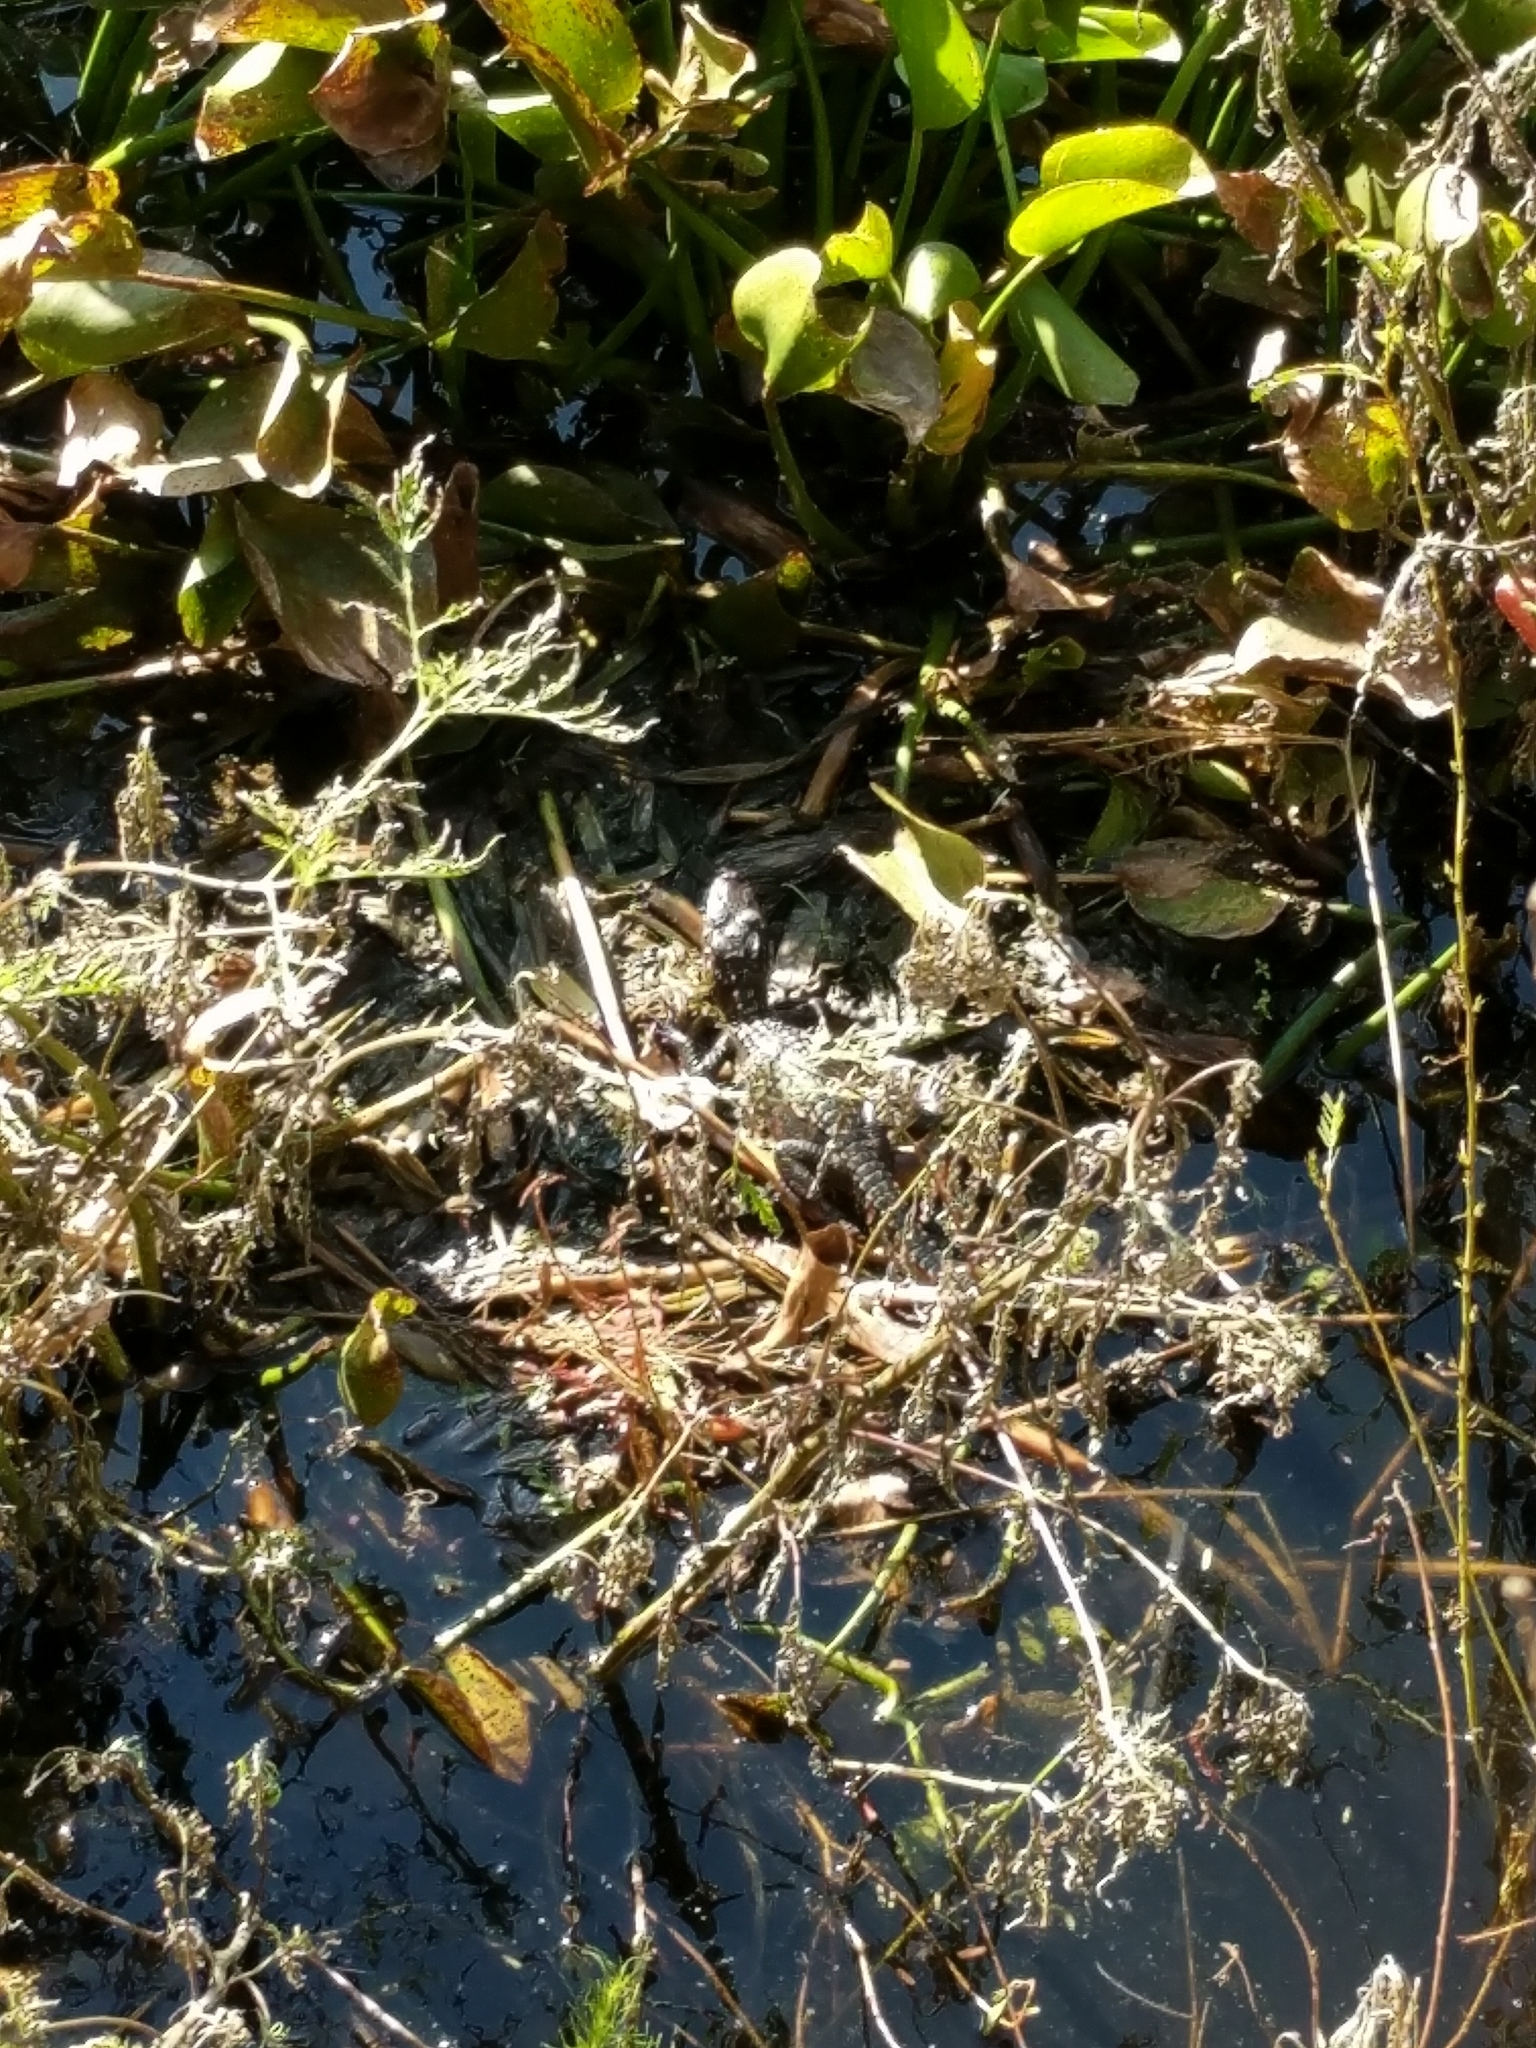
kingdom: Animalia
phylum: Chordata
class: Crocodylia
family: Alligatoridae
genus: Alligator
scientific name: Alligator mississippiensis
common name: American alligator
